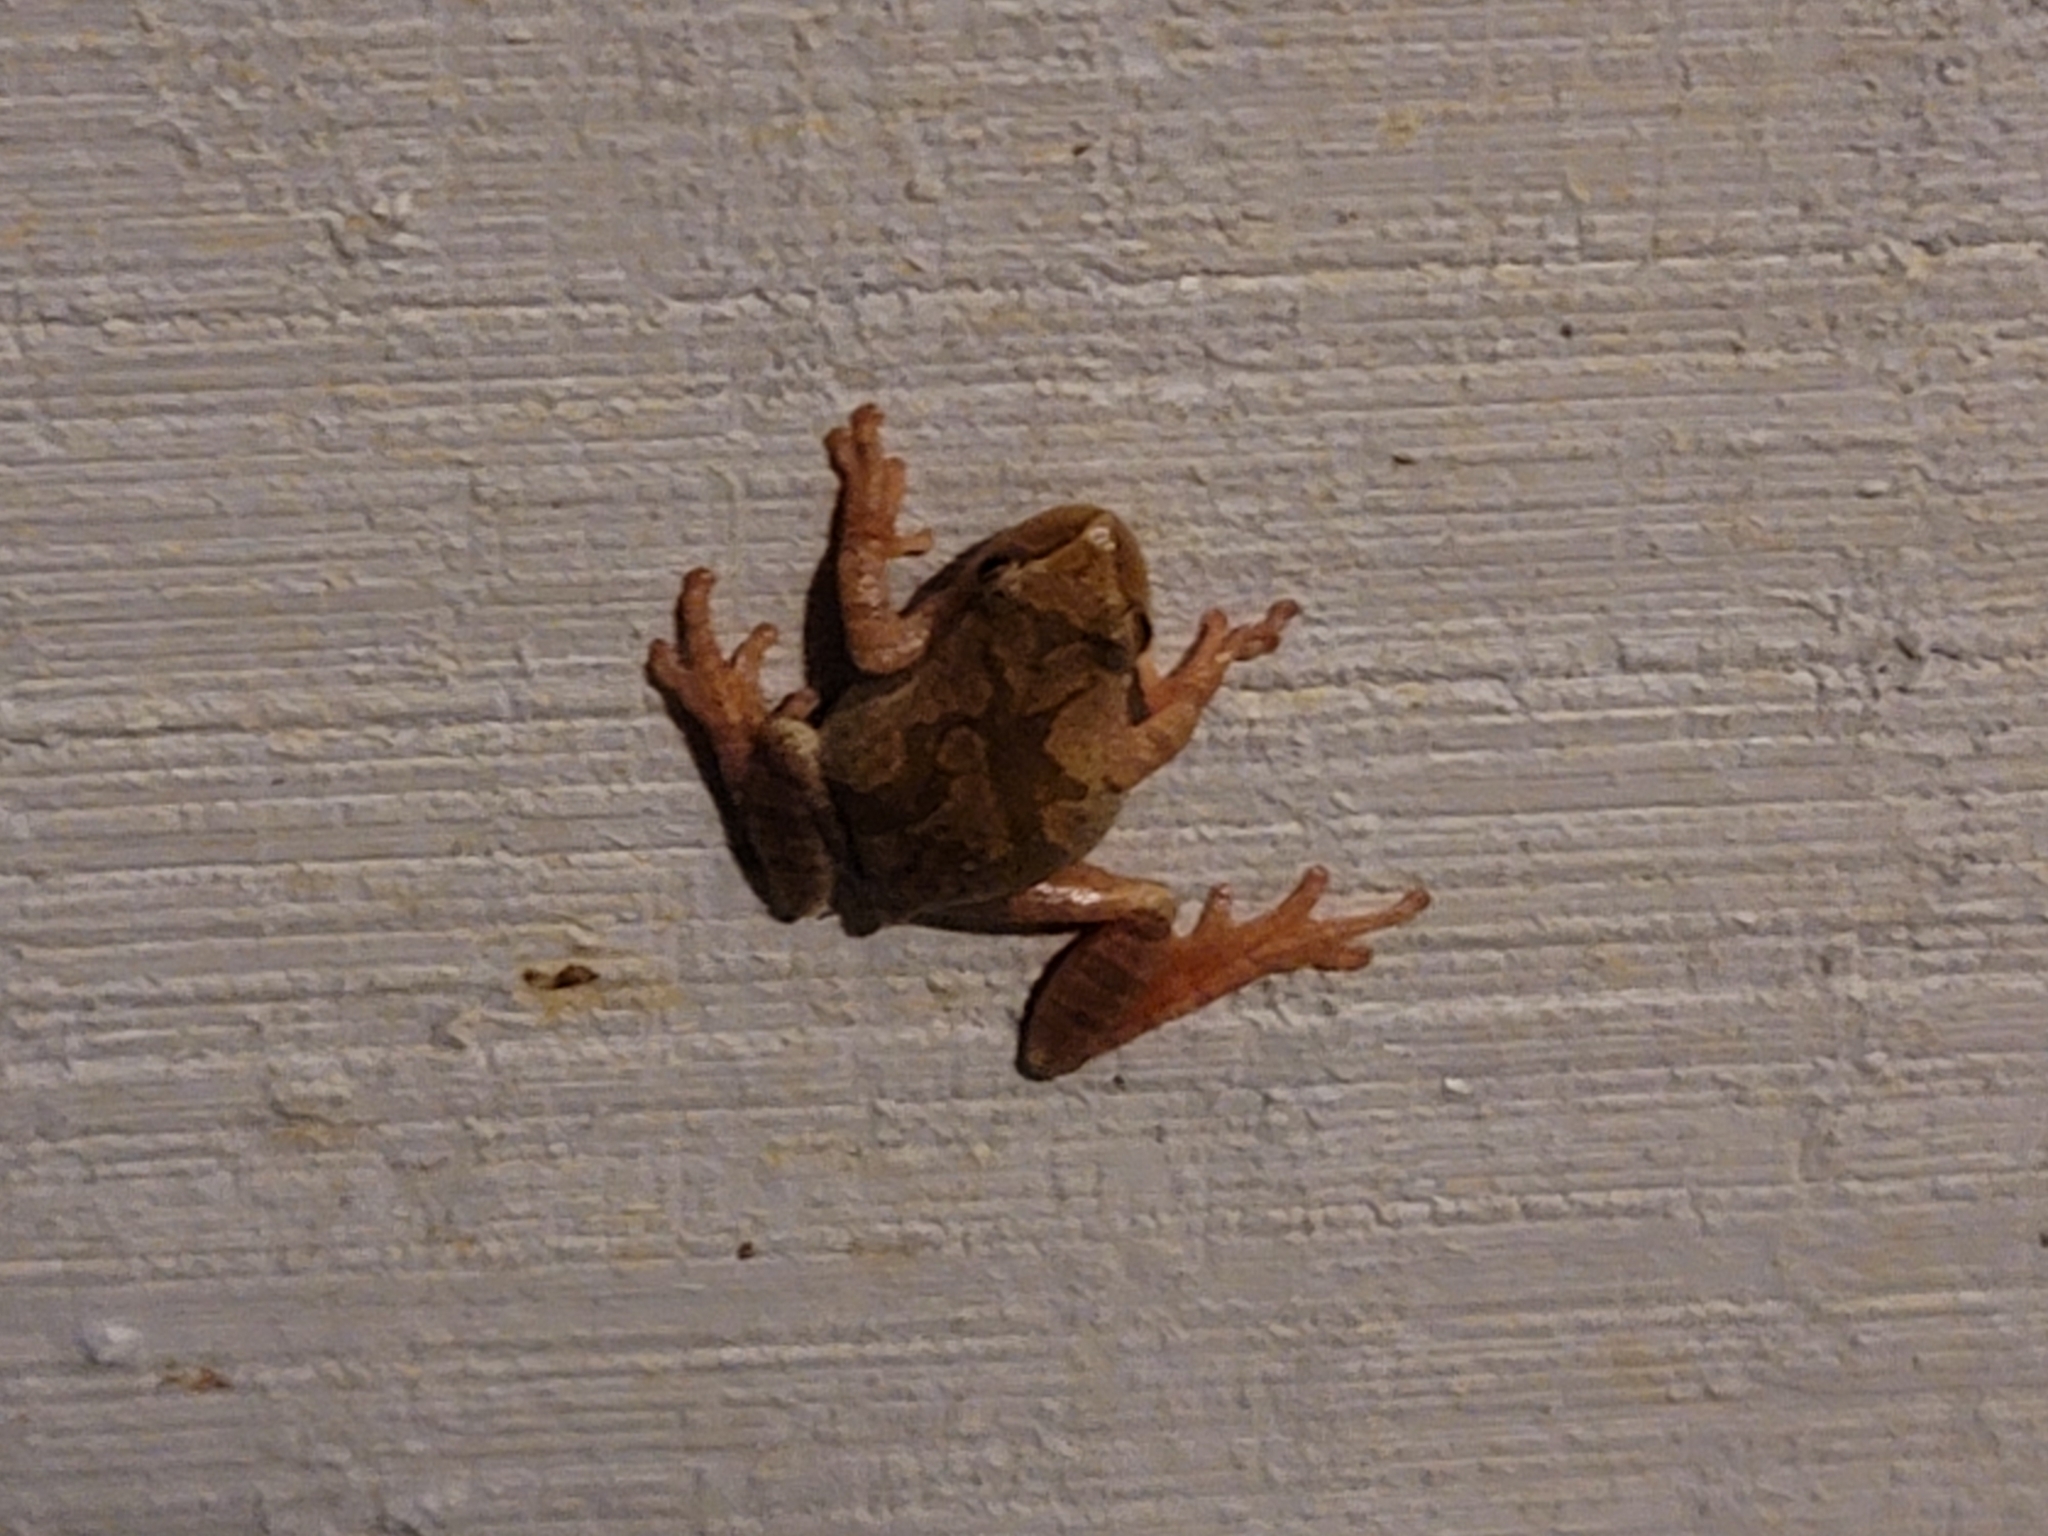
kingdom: Animalia
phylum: Chordata
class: Amphibia
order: Anura
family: Hylidae
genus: Pseudacris
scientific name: Pseudacris crucifer
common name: Spring peeper
